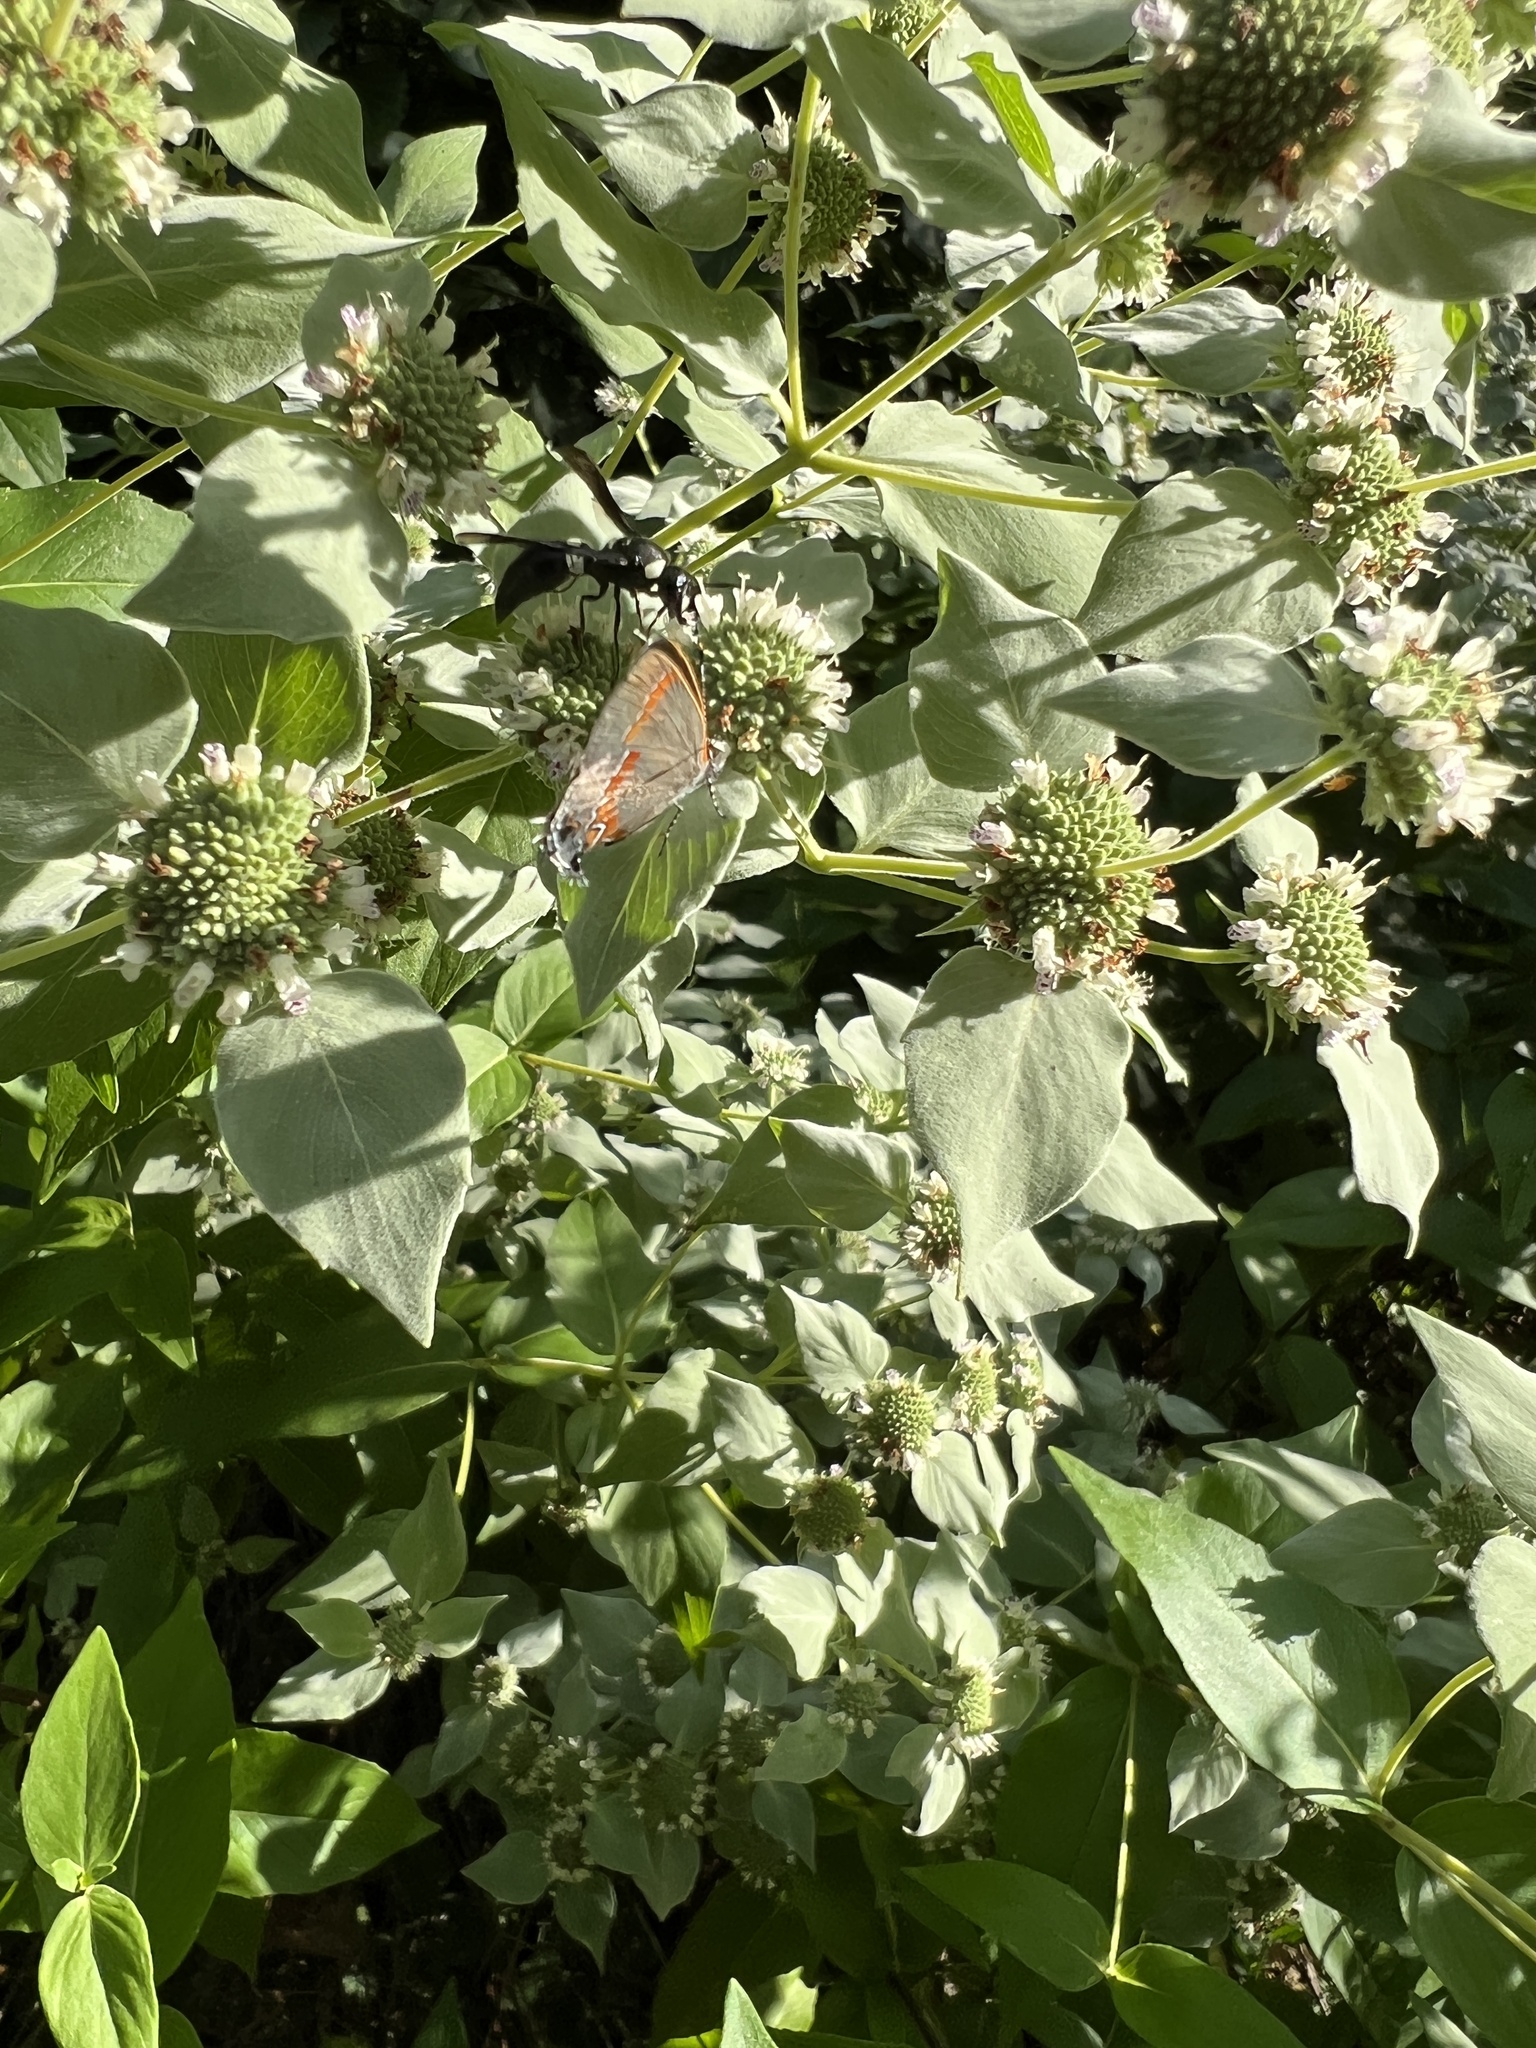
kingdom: Animalia
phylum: Arthropoda
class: Insecta
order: Lepidoptera
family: Lycaenidae
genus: Calycopis
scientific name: Calycopis cecrops
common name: Red-banded hairstreak
